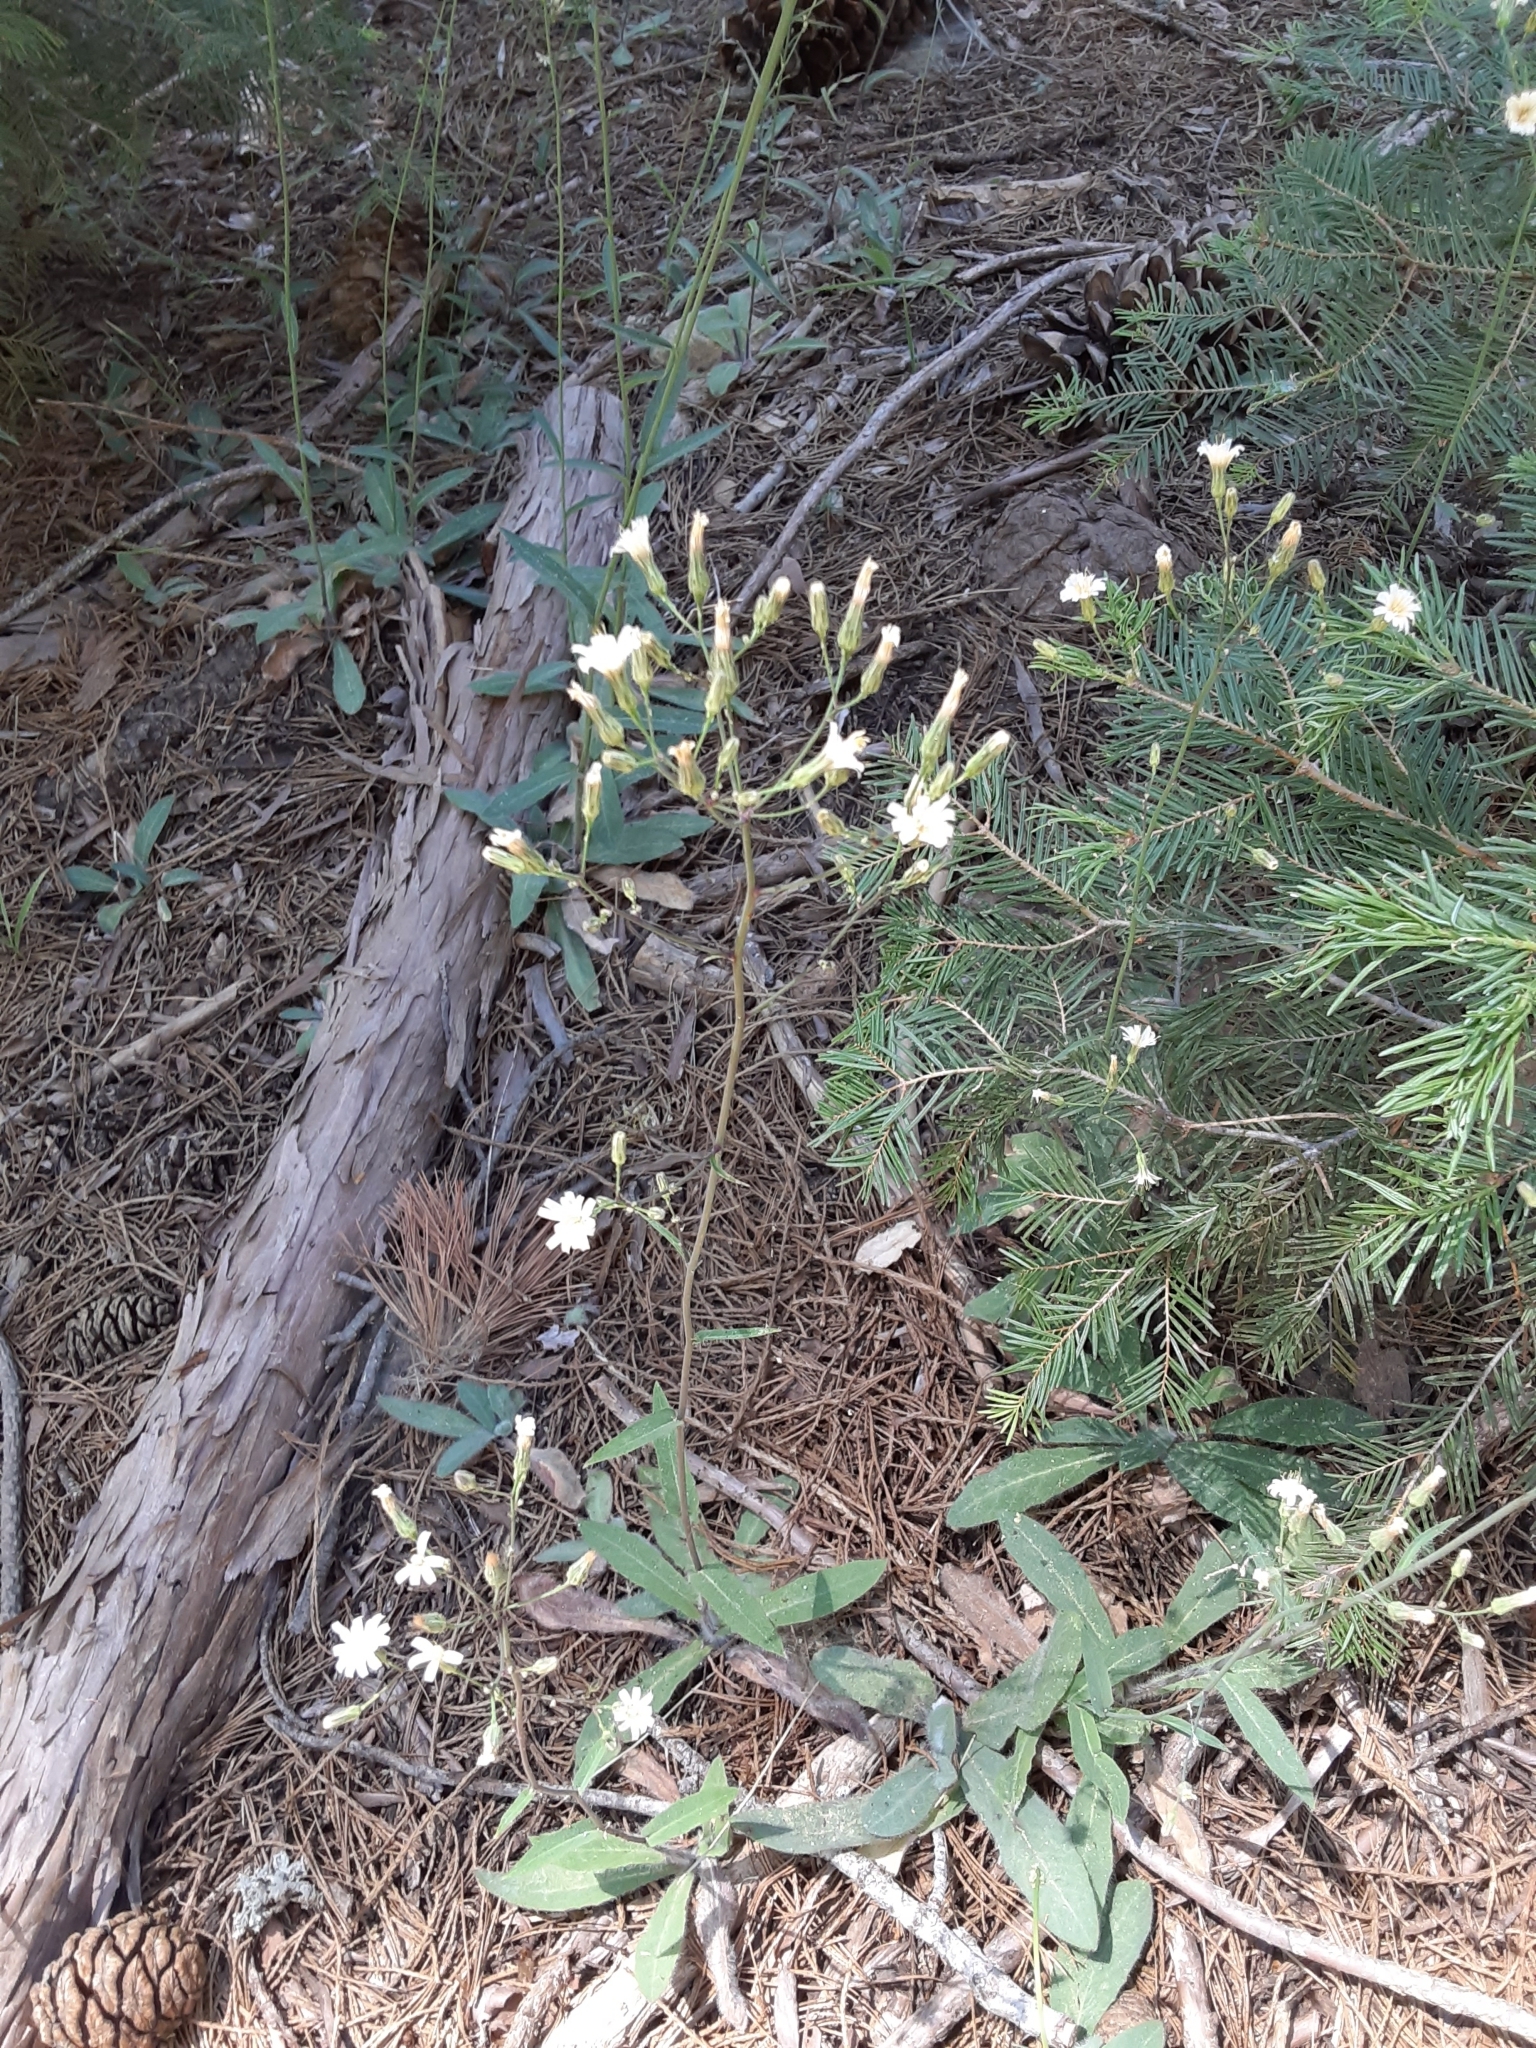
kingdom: Plantae
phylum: Tracheophyta
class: Magnoliopsida
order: Asterales
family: Asteraceae
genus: Hieracium
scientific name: Hieracium albiflorum
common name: White hawkweed
